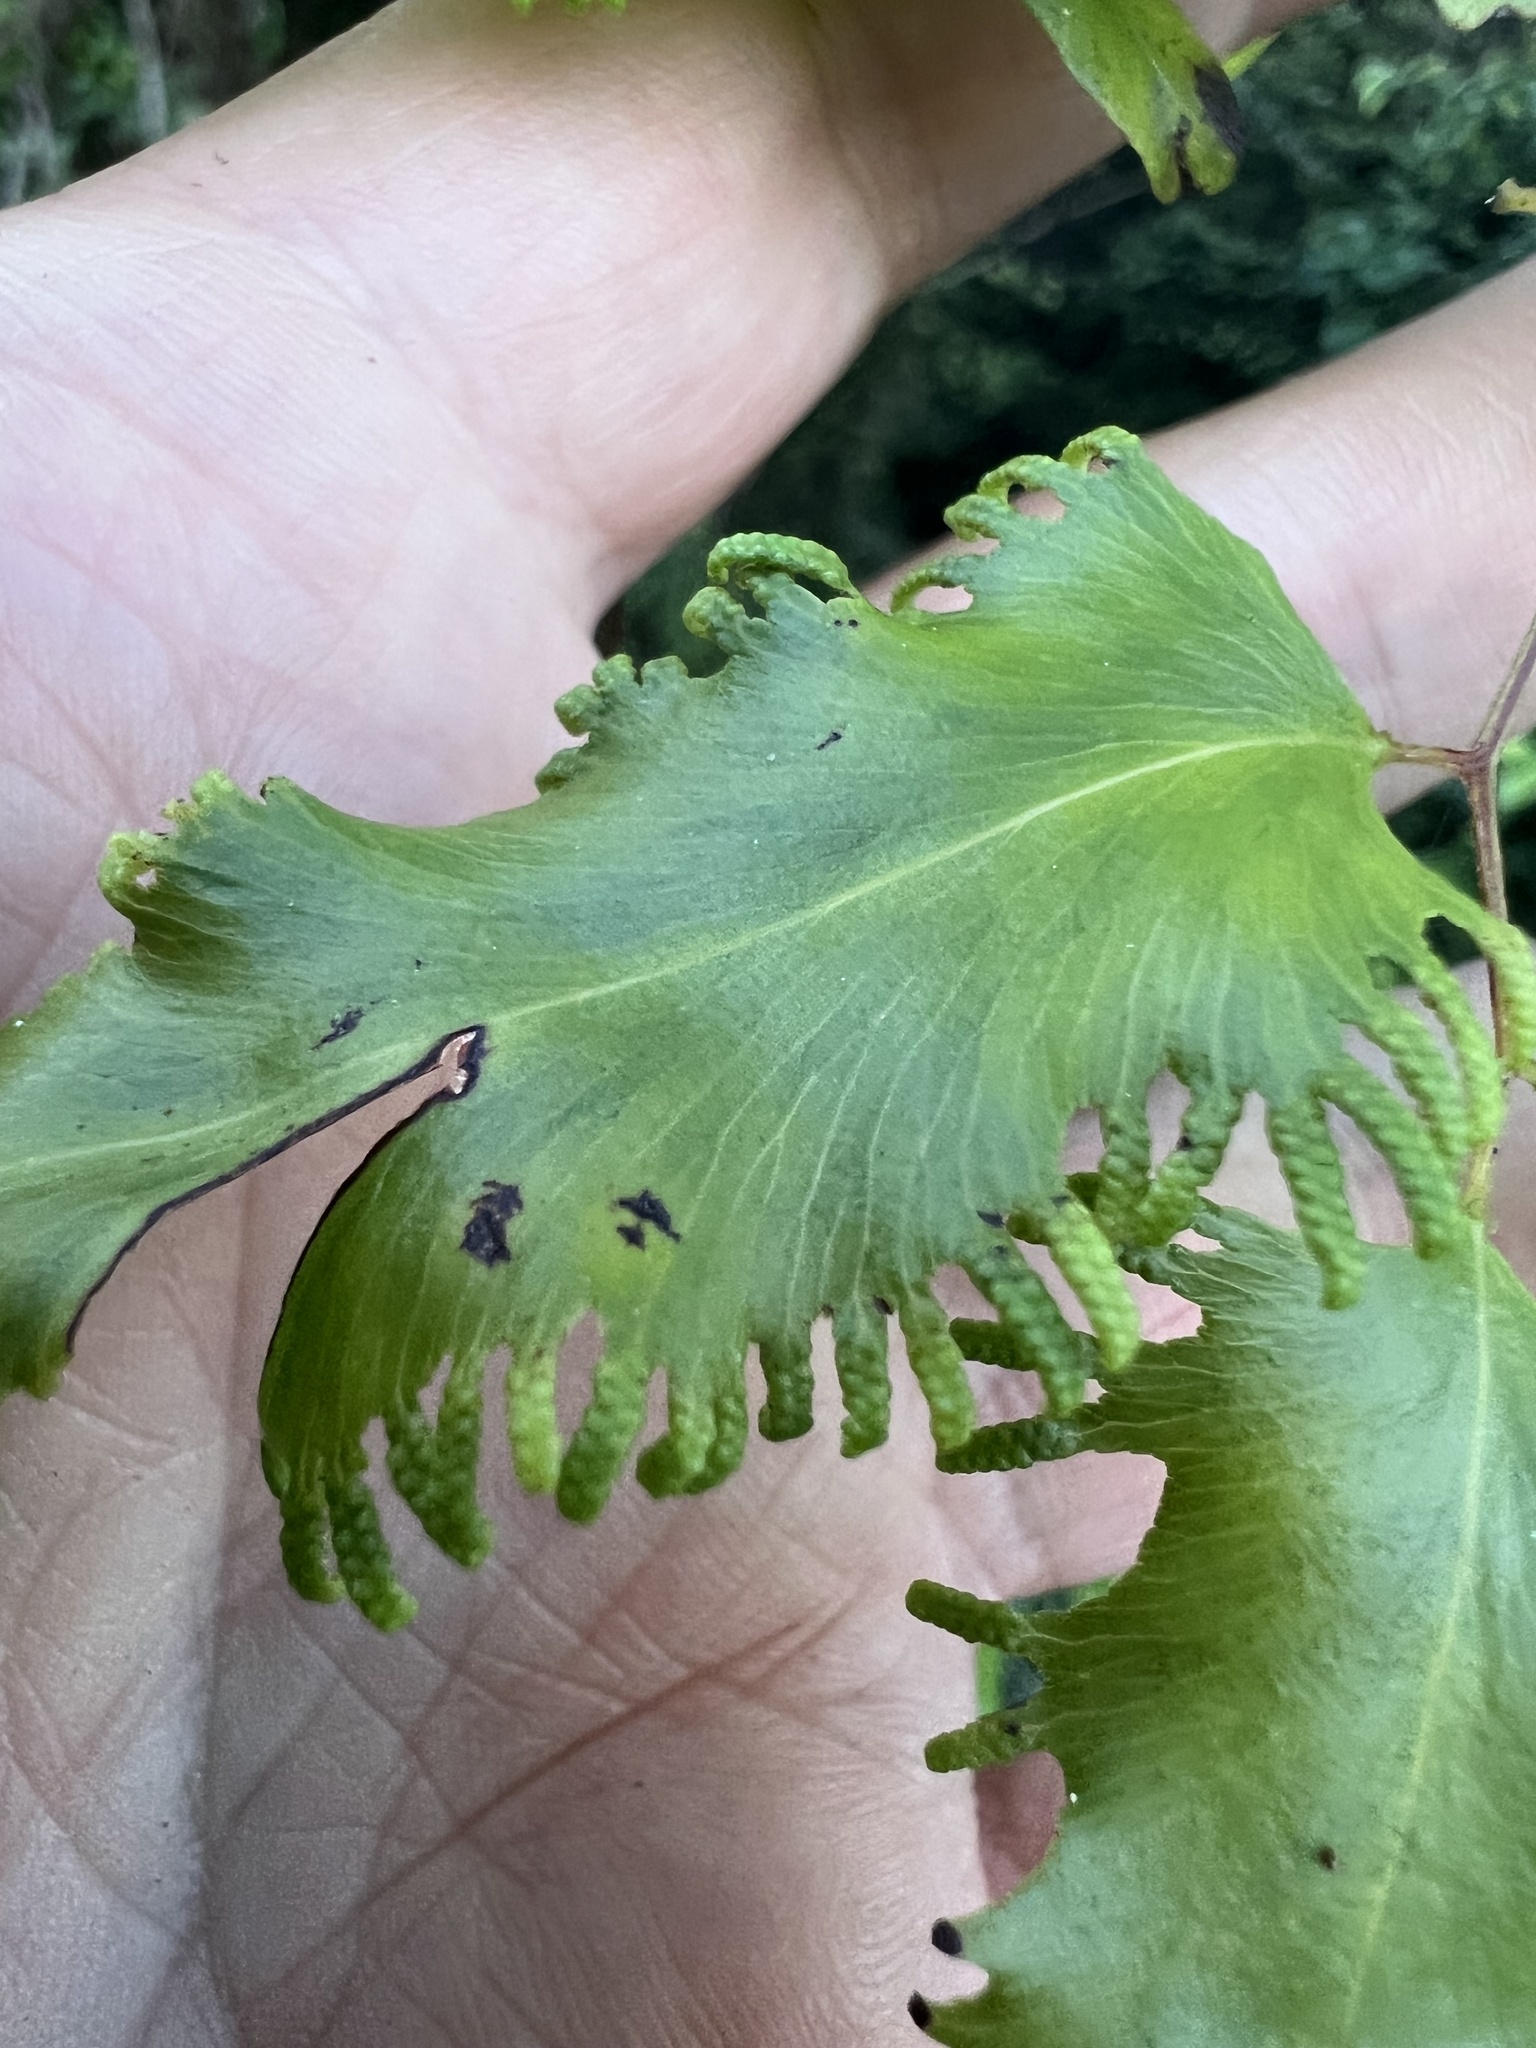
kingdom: Plantae
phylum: Tracheophyta
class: Polypodiopsida
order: Schizaeales
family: Lygodiaceae
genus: Lygodium
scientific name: Lygodium reticulatum
